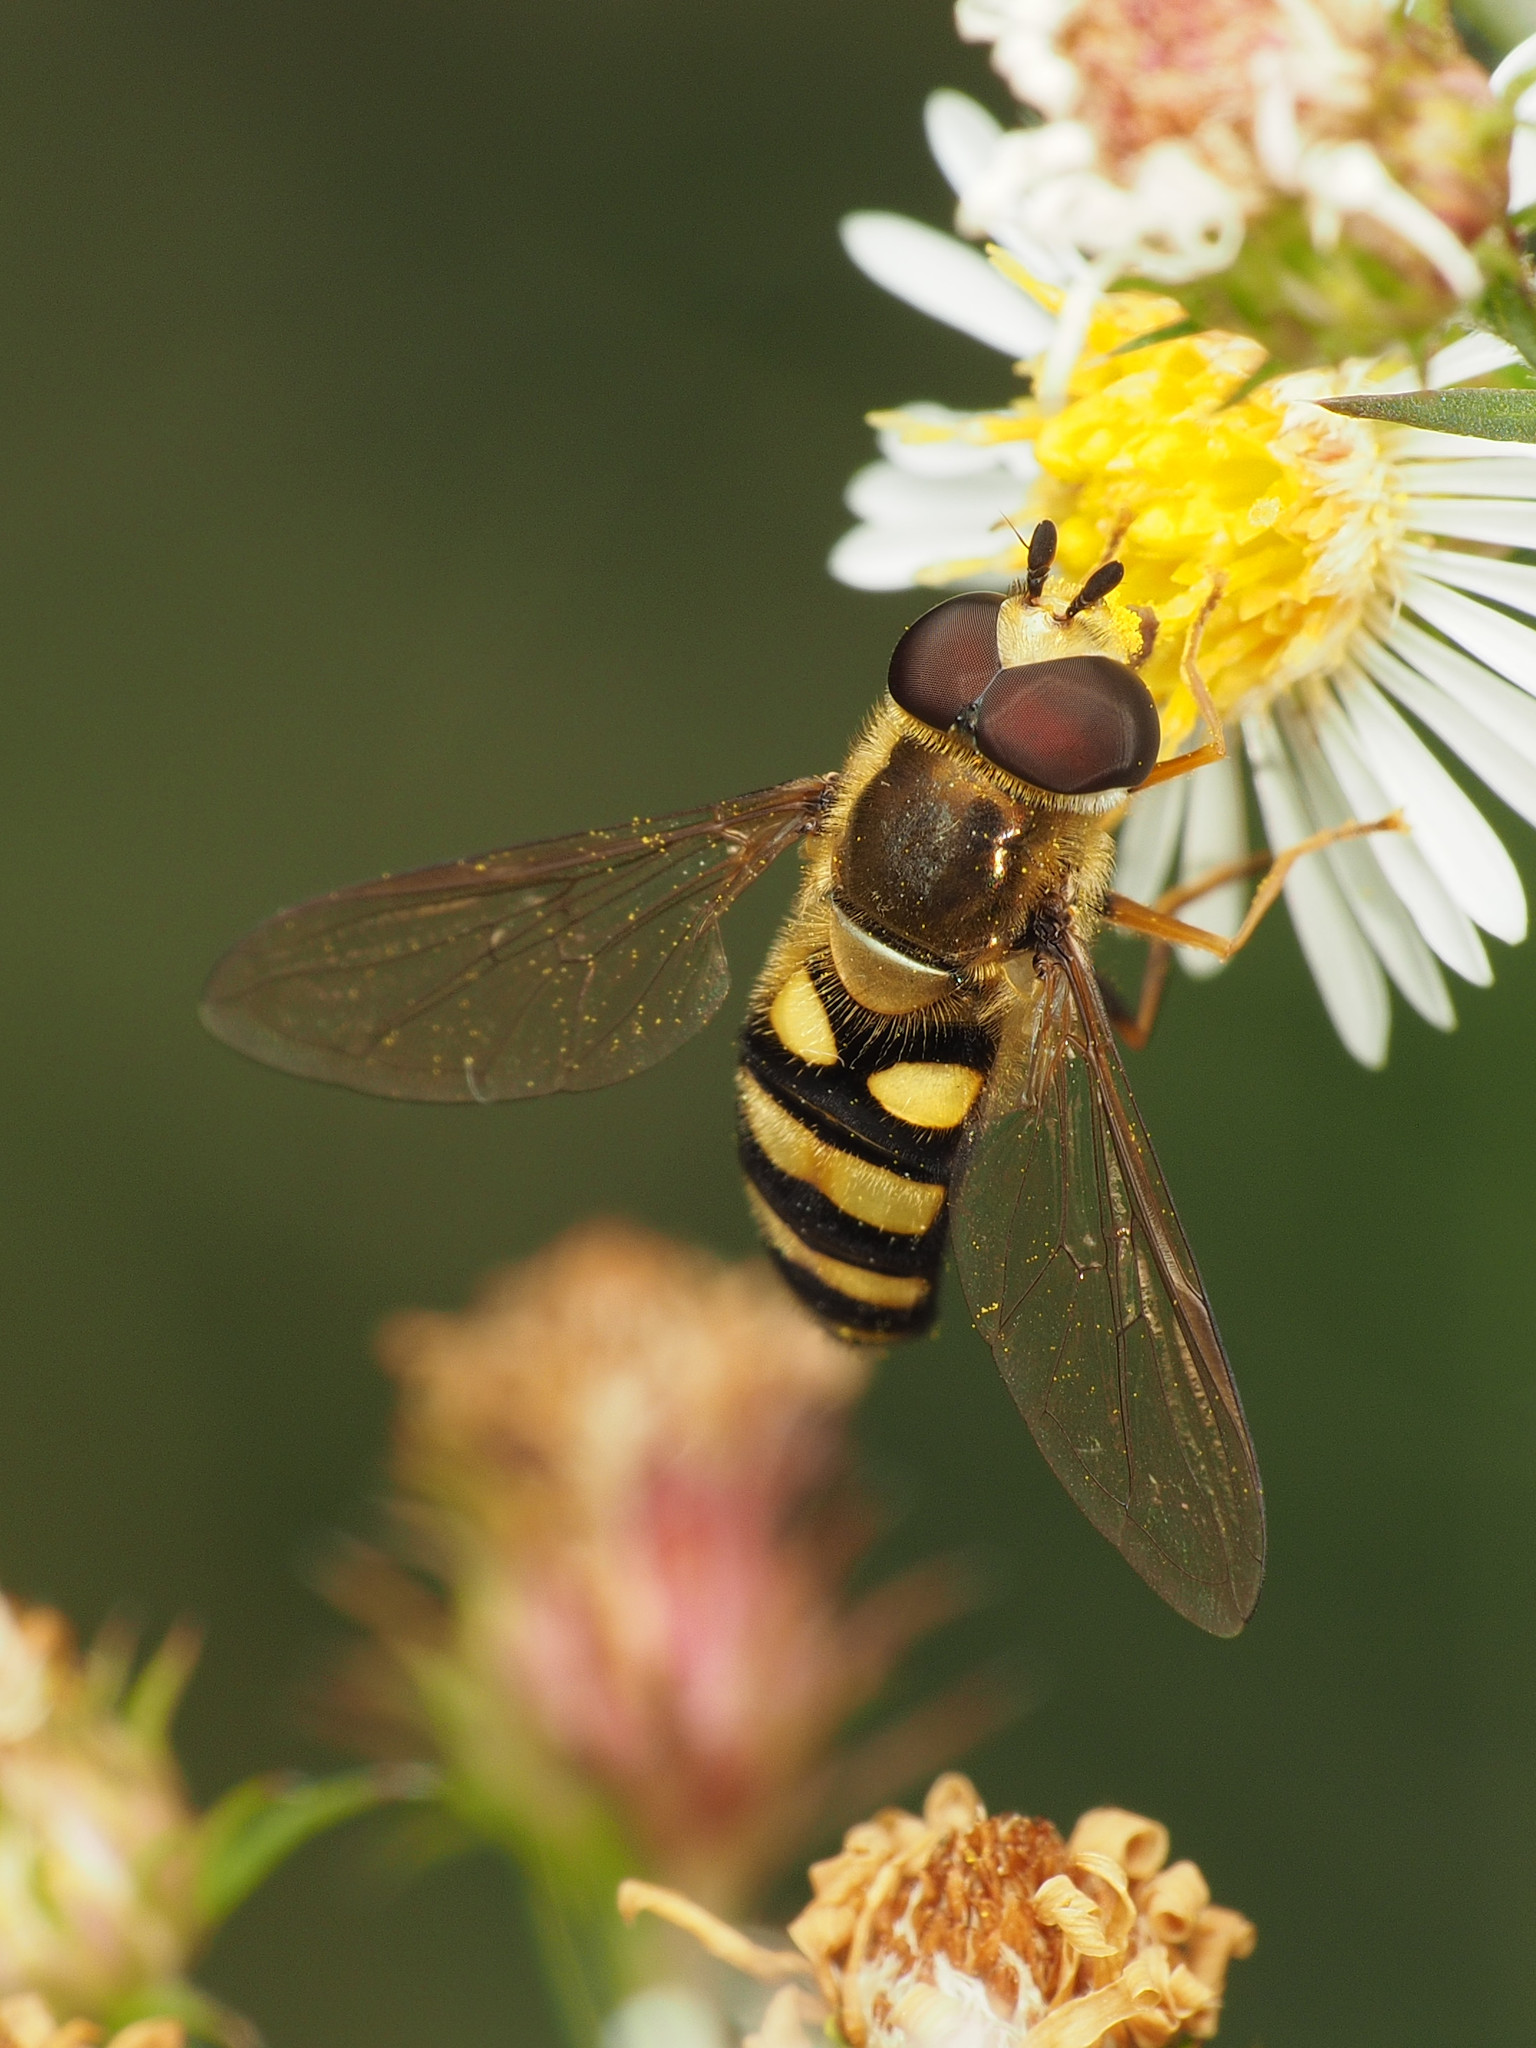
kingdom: Animalia
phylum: Arthropoda
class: Insecta
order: Diptera
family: Syrphidae
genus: Eupeodes
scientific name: Eupeodes
